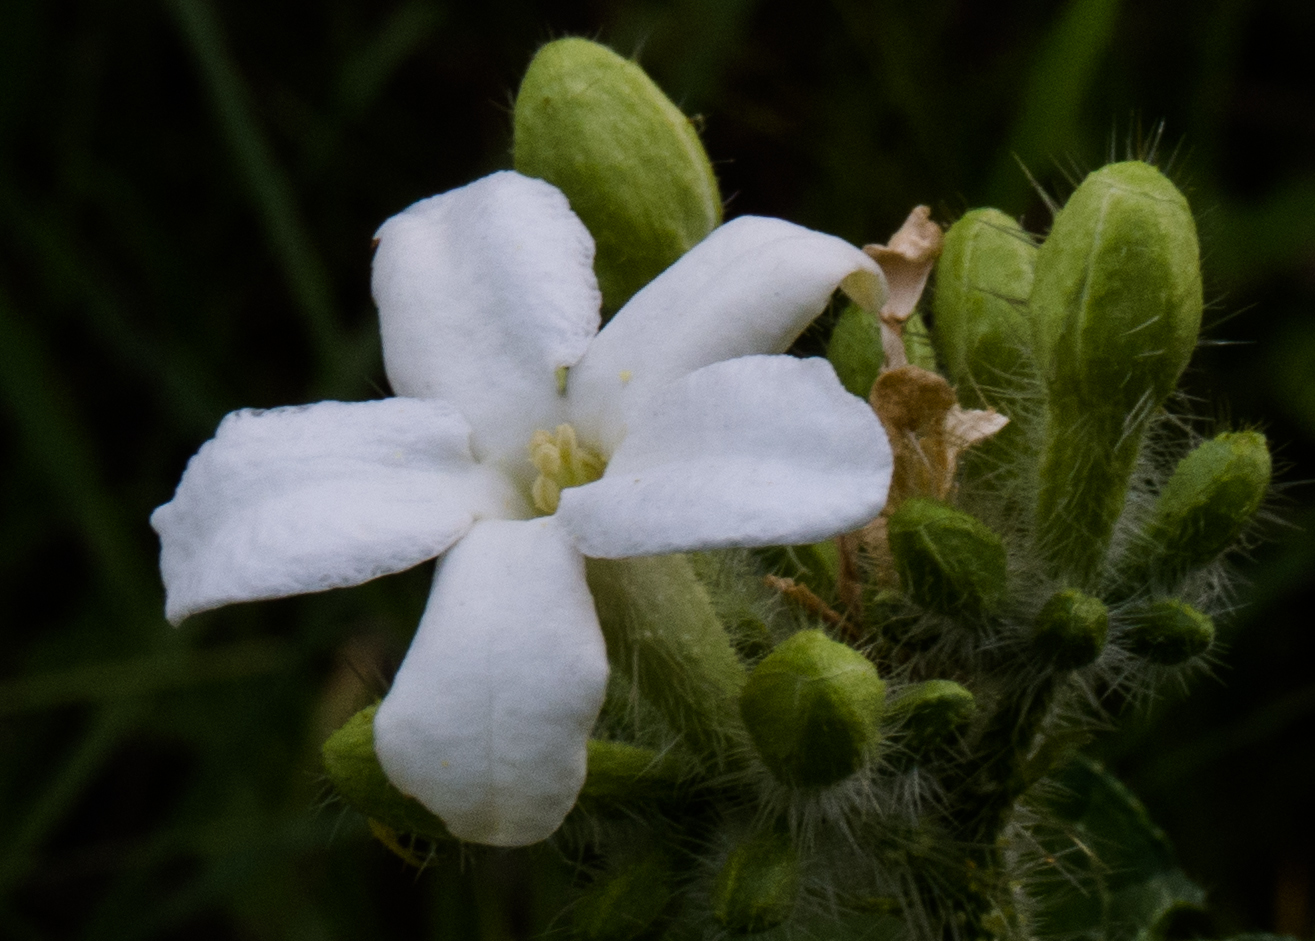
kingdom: Plantae
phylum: Tracheophyta
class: Magnoliopsida
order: Malpighiales
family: Euphorbiaceae
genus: Cnidoscolus
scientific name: Cnidoscolus texanus
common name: Texas bull-nettle
